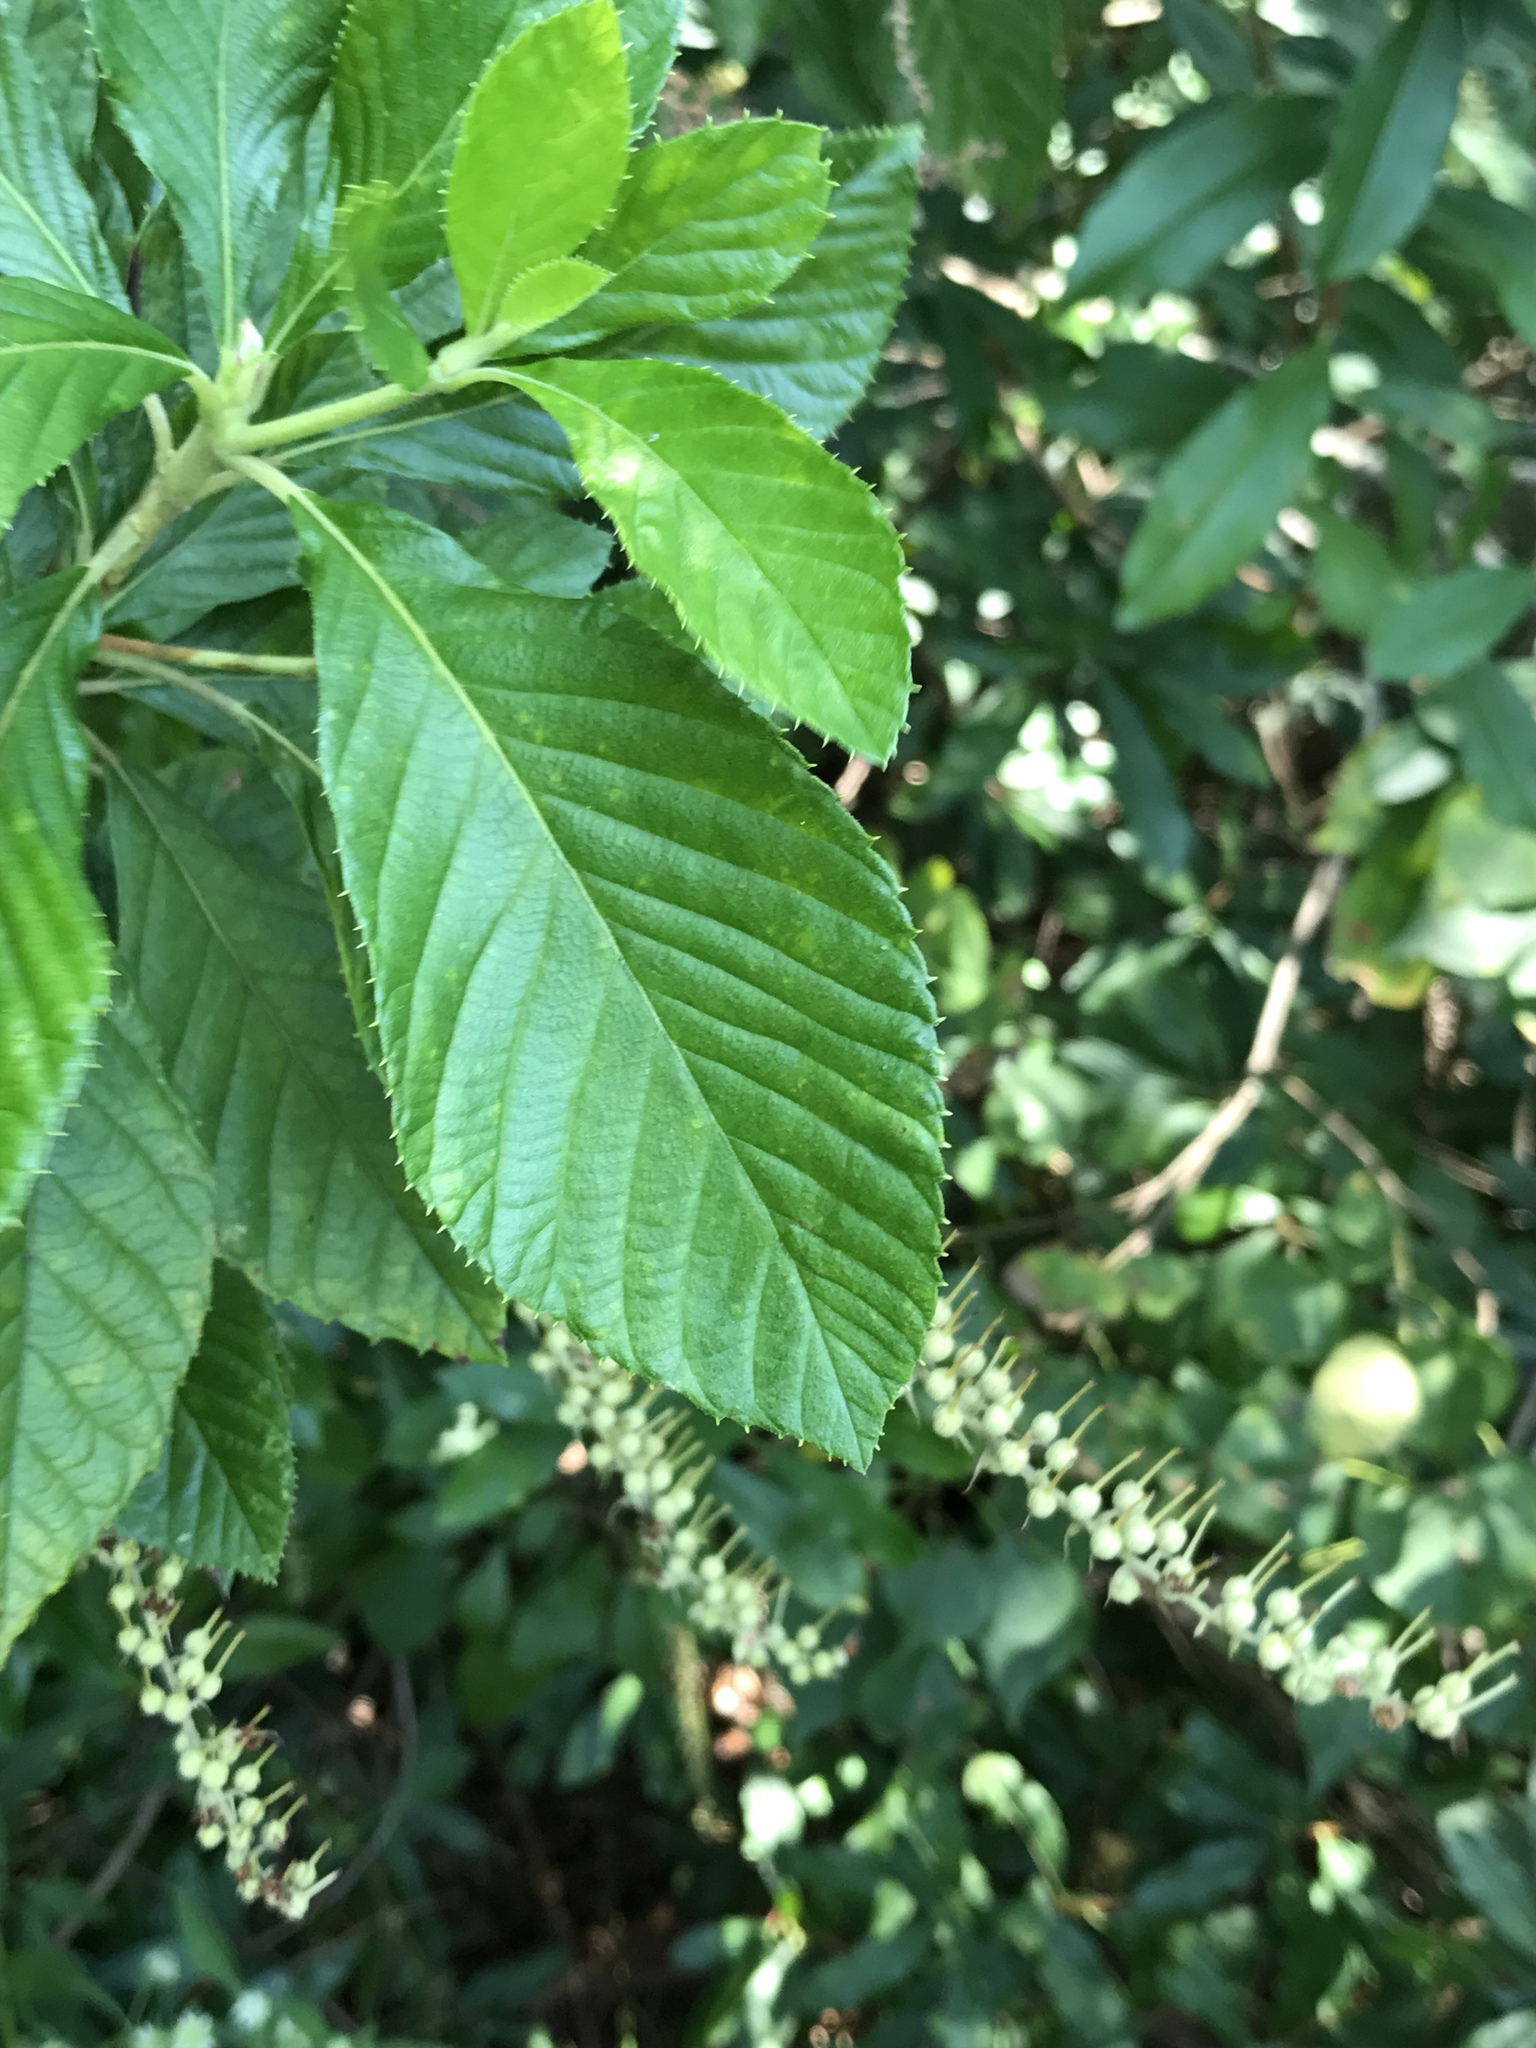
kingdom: Plantae
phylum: Tracheophyta
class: Magnoliopsida
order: Ericales
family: Clethraceae
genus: Clethra
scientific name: Clethra alnifolia
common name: Sweet pepperbush
